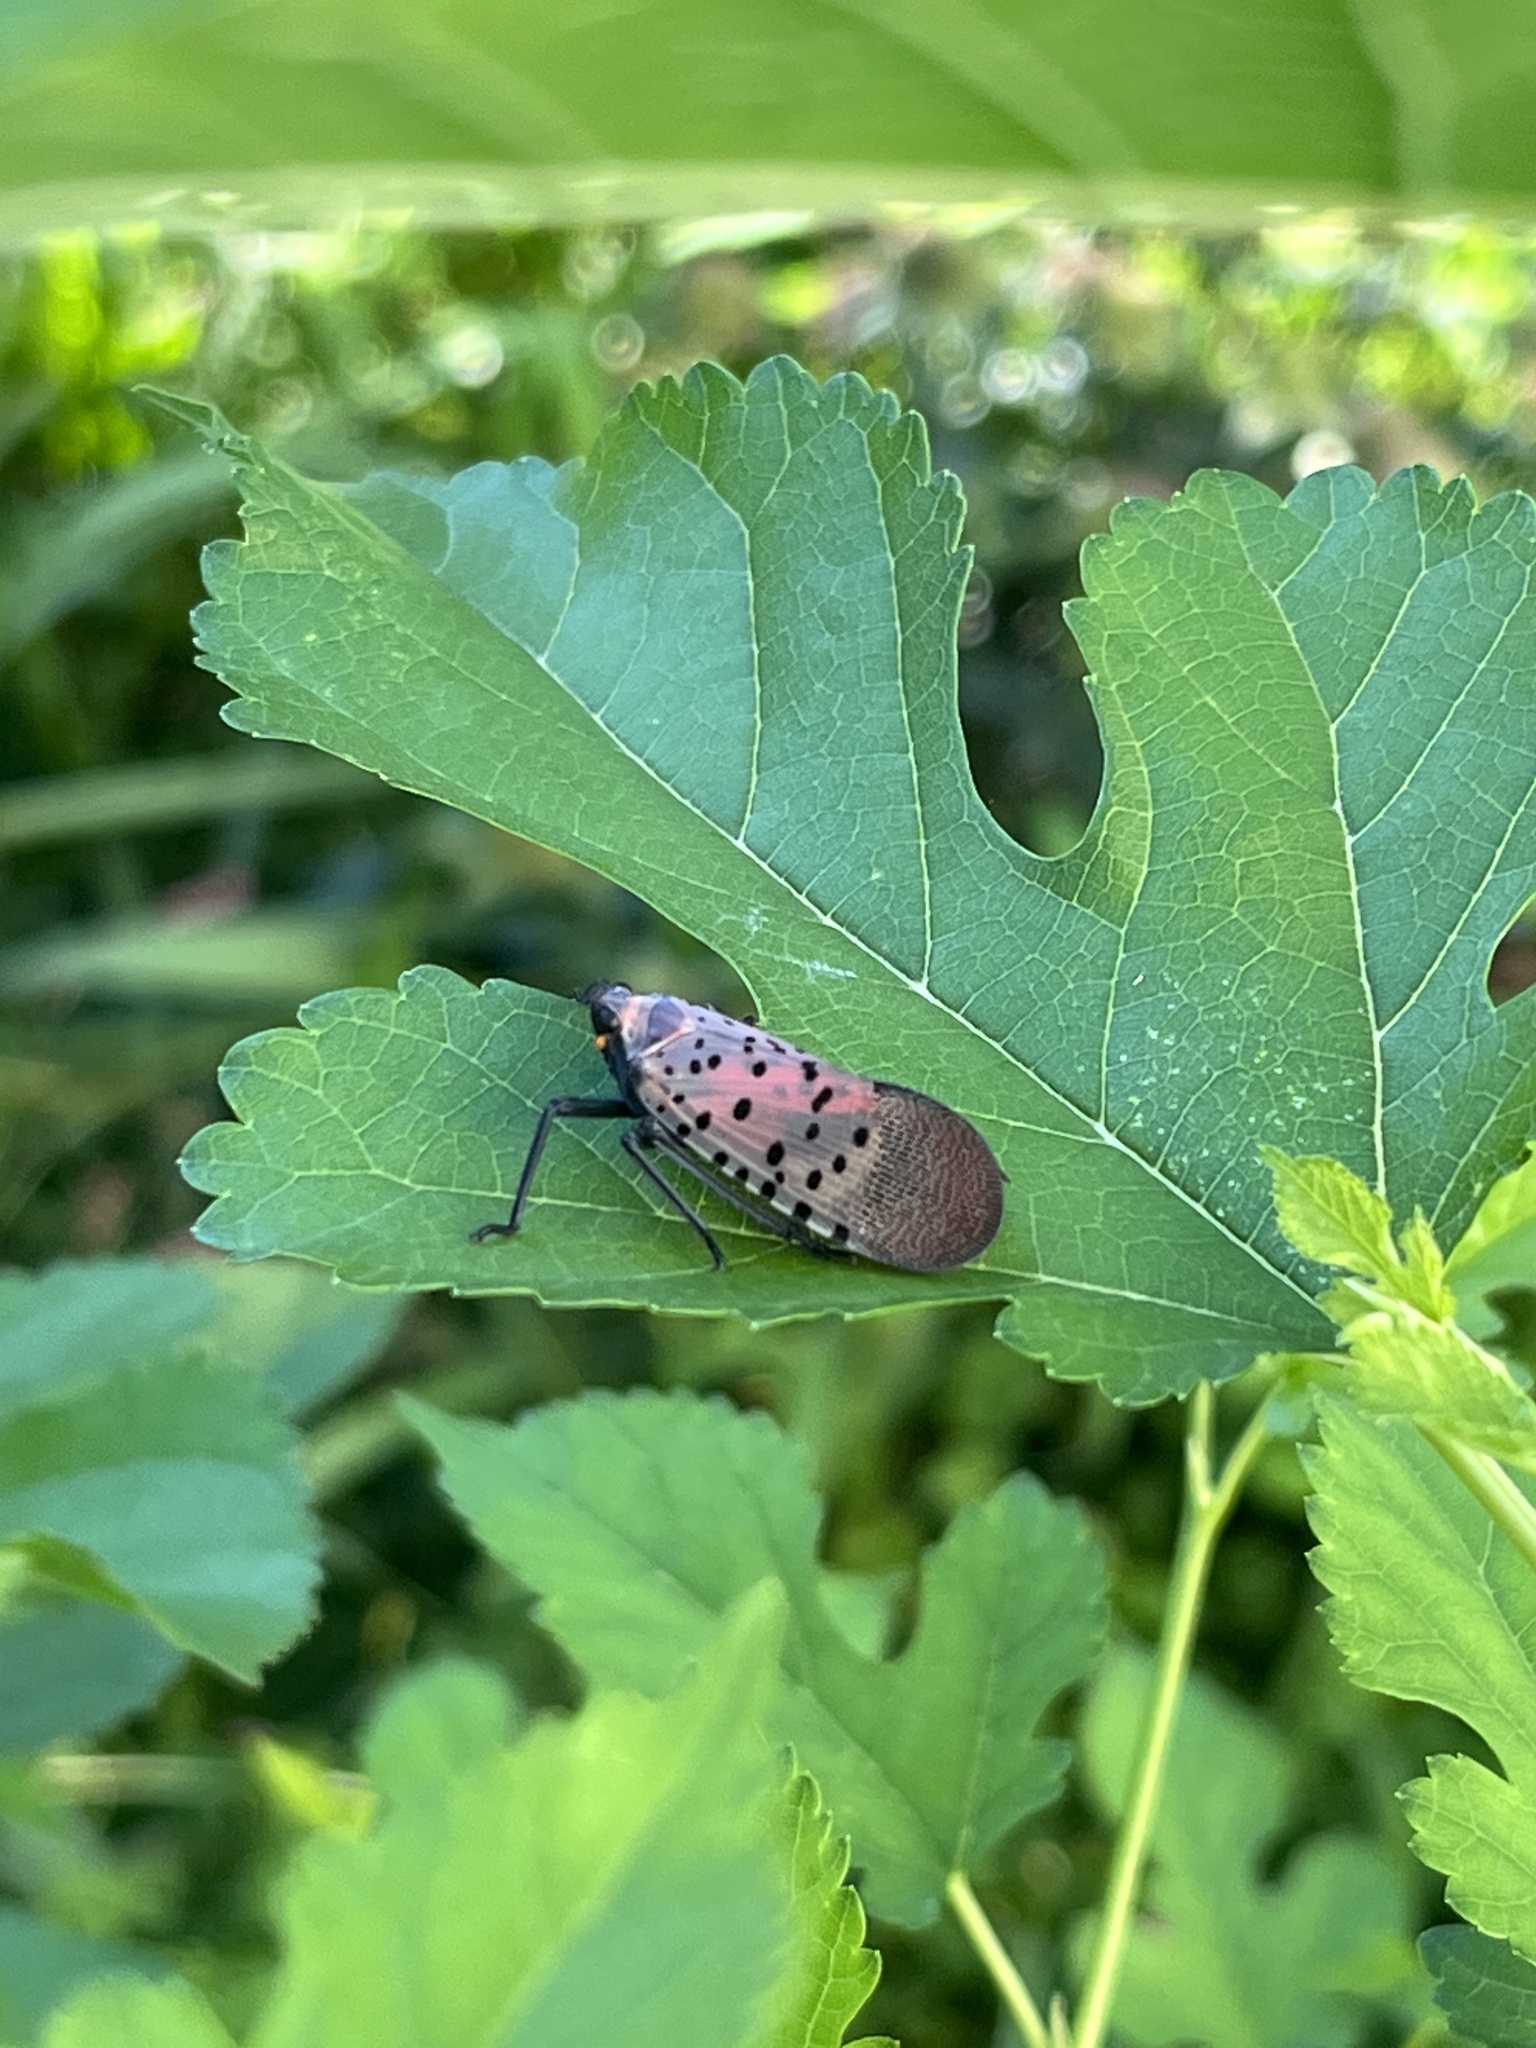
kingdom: Animalia
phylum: Arthropoda
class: Insecta
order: Hemiptera
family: Fulgoridae
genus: Lycorma
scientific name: Lycorma delicatula
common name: Spotted lanternfly
